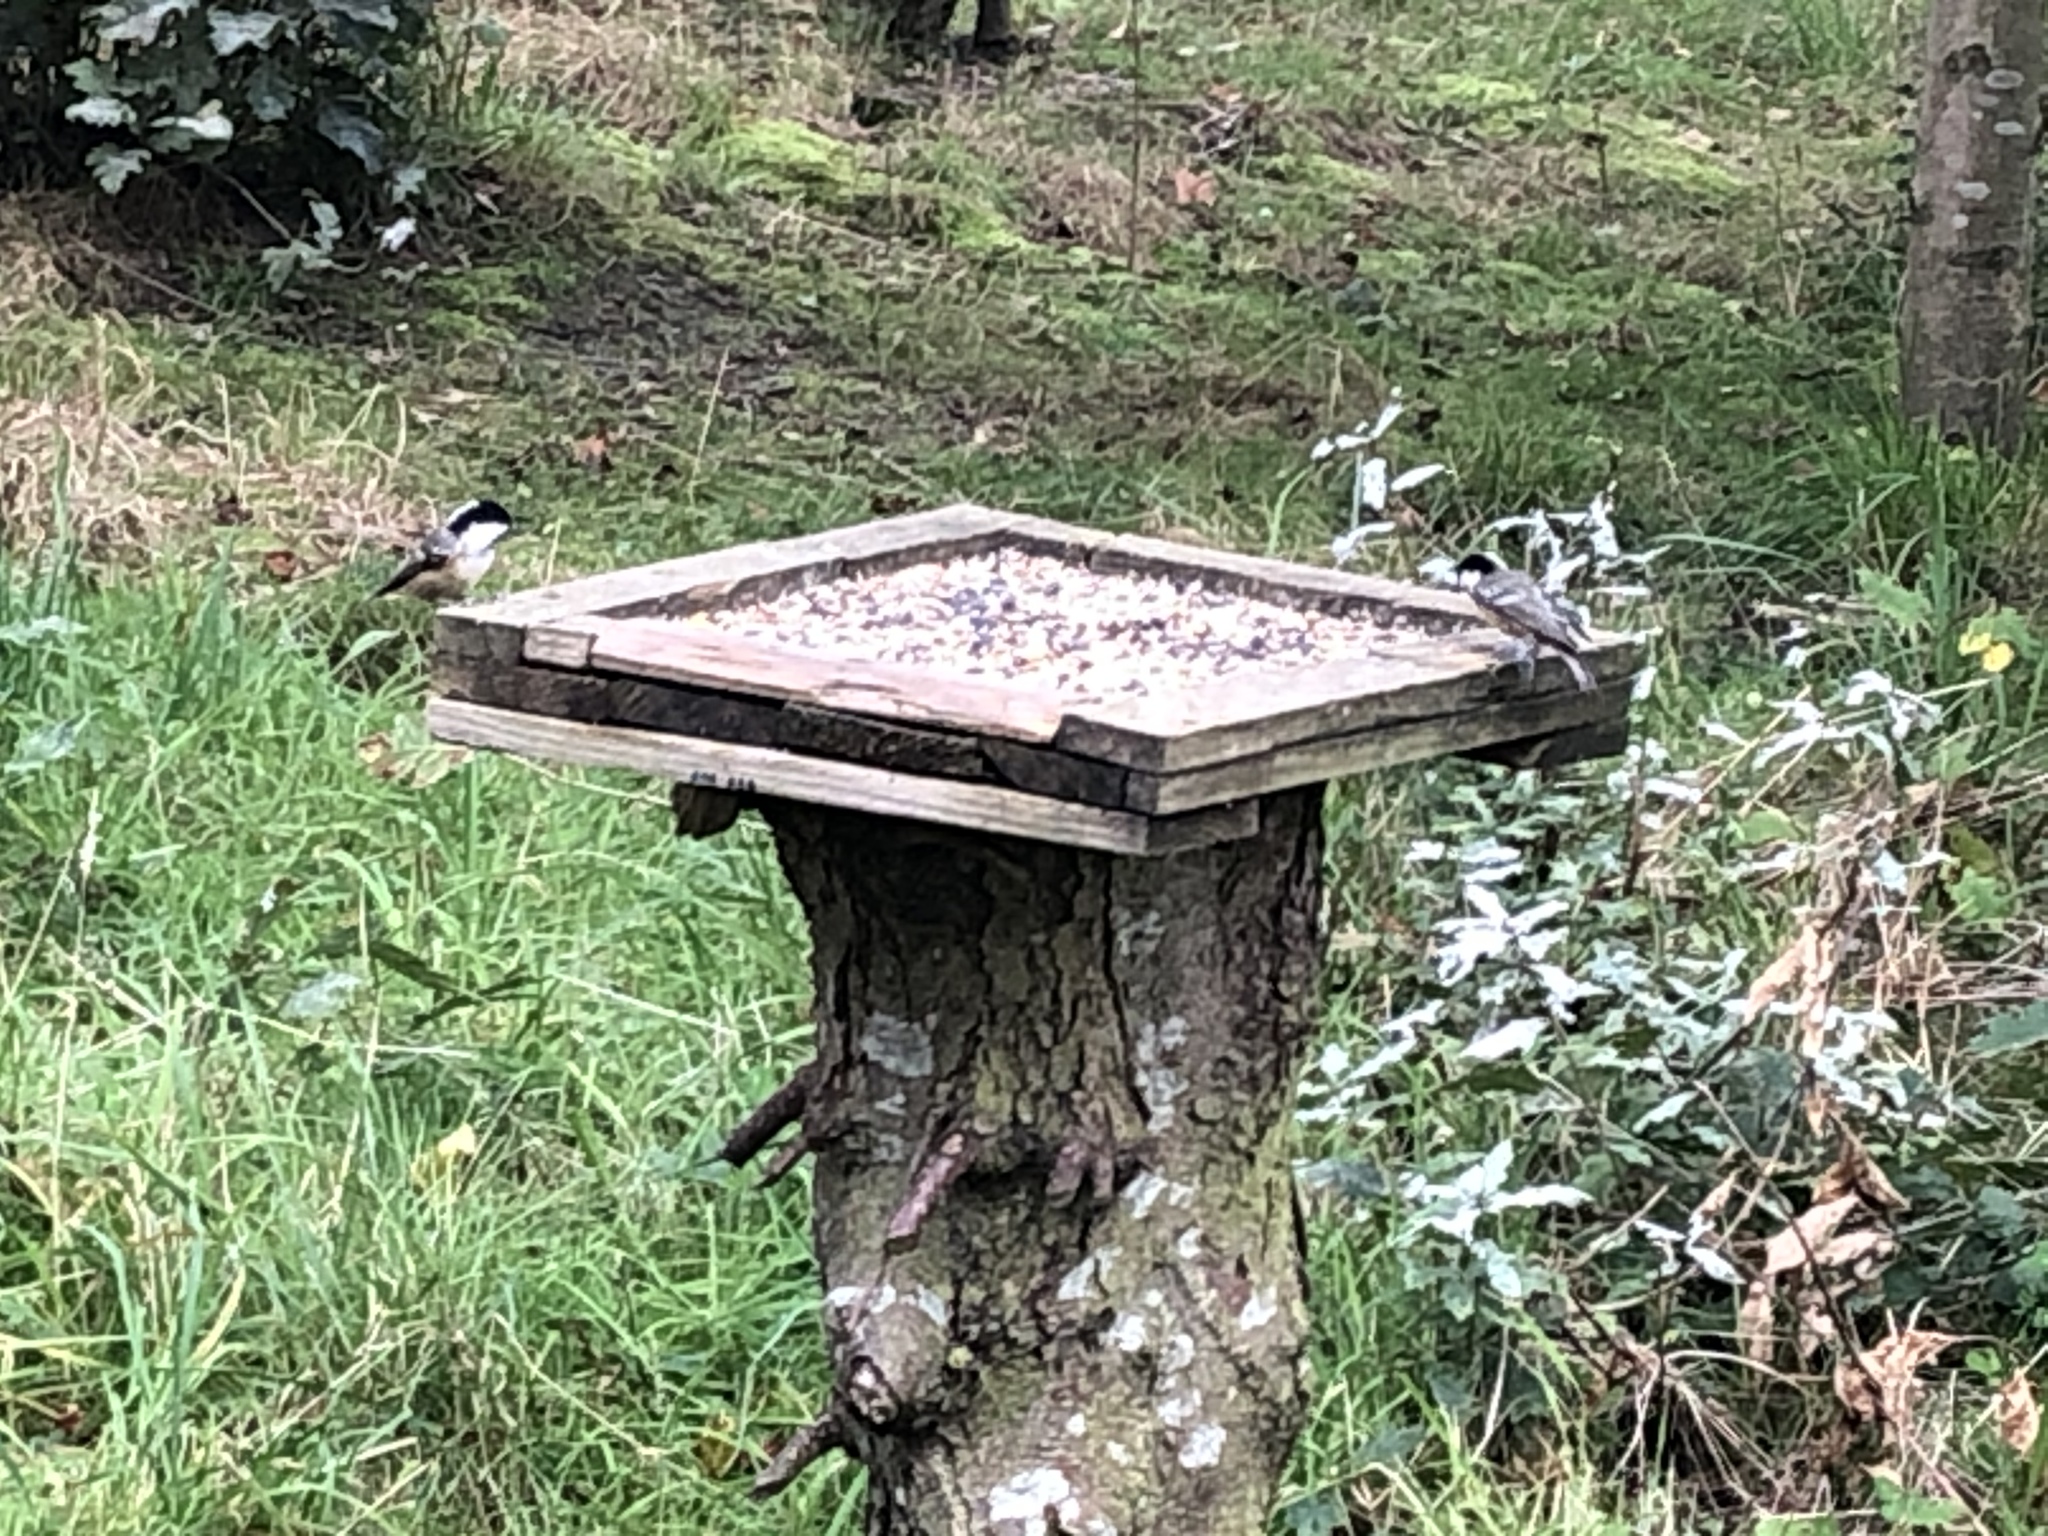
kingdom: Animalia
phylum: Chordata
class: Aves
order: Passeriformes
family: Paridae
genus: Periparus
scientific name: Periparus ater
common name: Coal tit
